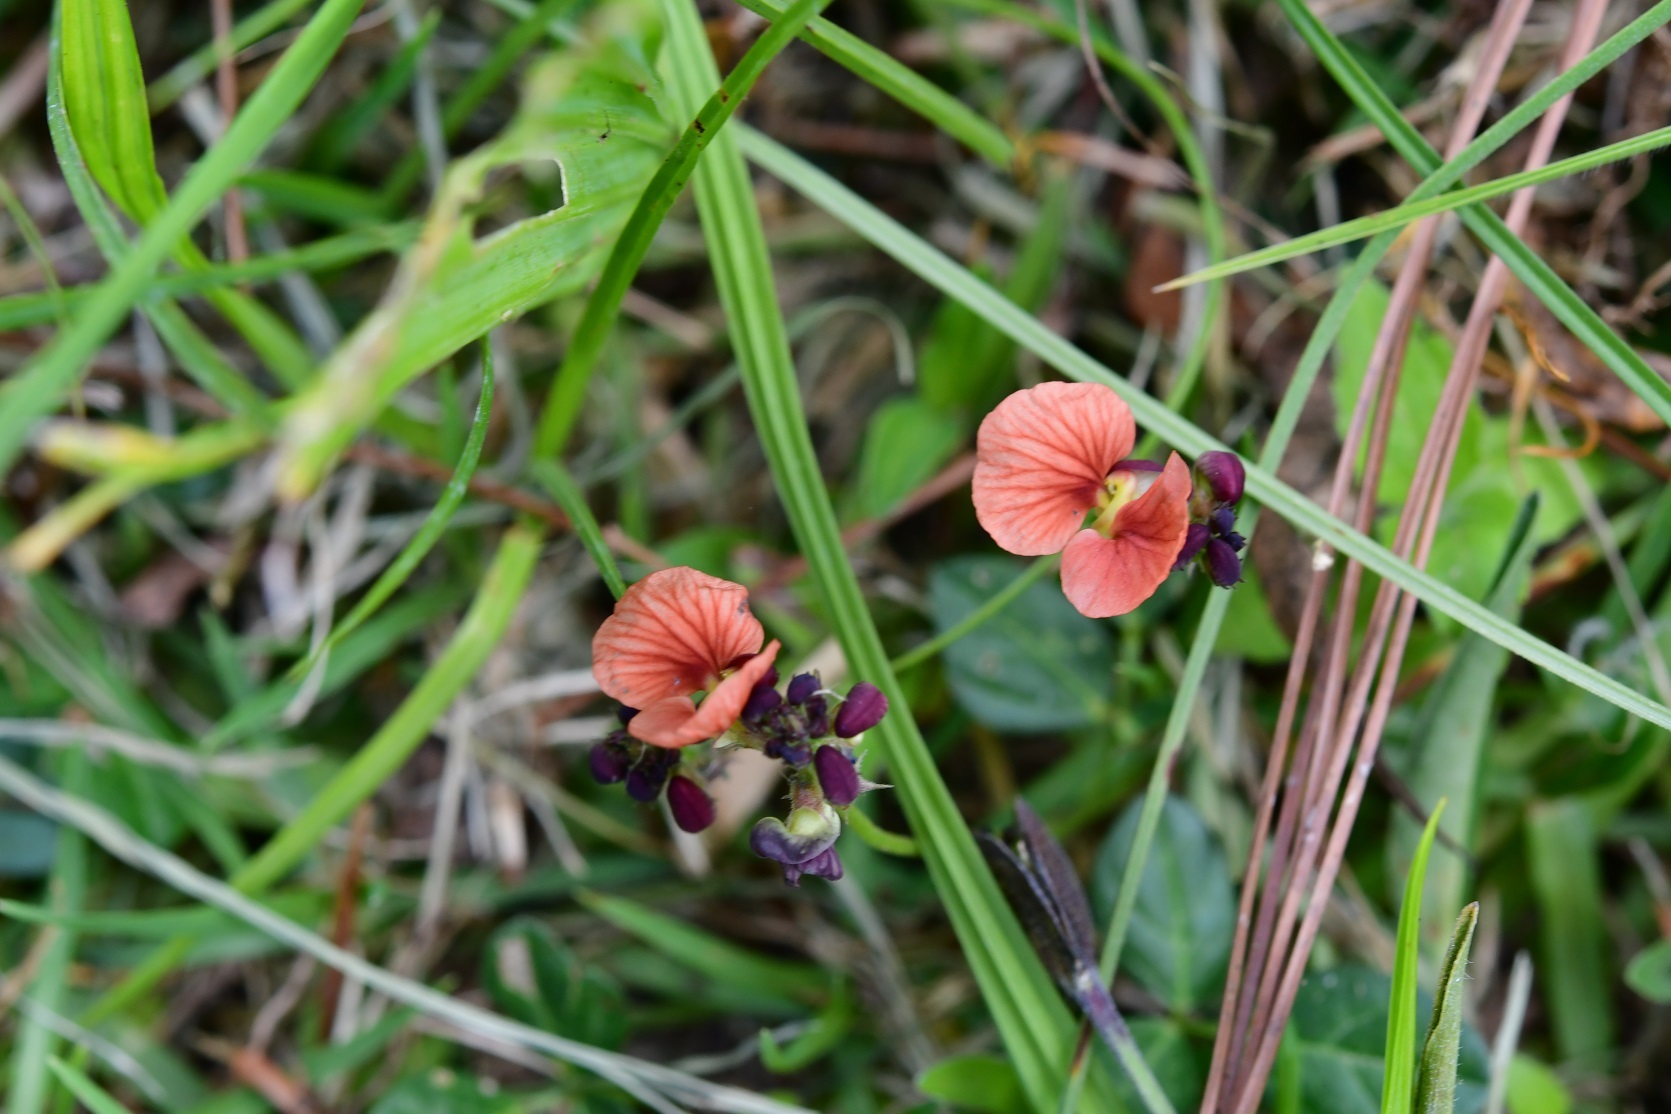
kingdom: Plantae
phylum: Tracheophyta
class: Magnoliopsida
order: Fabales
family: Fabaceae
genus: Macroptilium
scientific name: Macroptilium gibbosifolium
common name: Variableleaf bushbean
